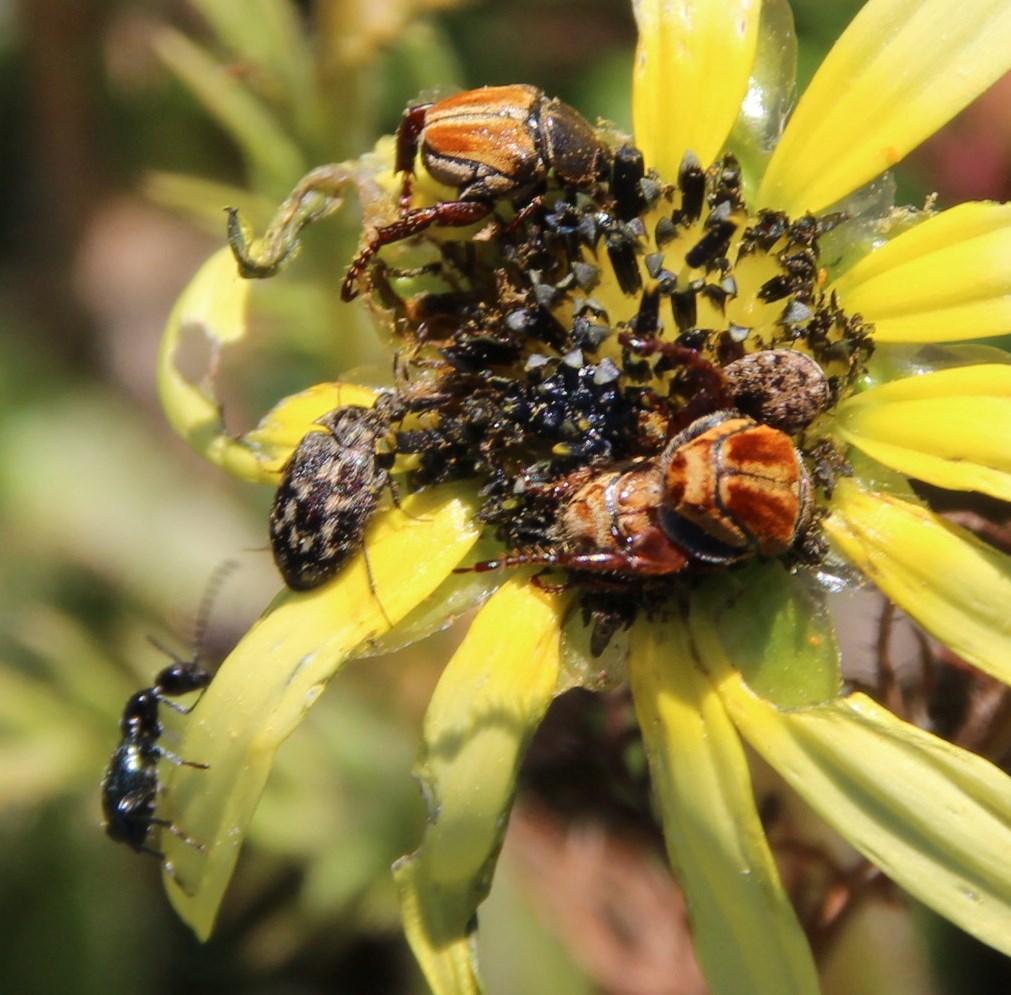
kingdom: Plantae
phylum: Tracheophyta
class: Magnoliopsida
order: Asterales
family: Asteraceae
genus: Arctotheca
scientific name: Arctotheca calendula
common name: Capeweed
